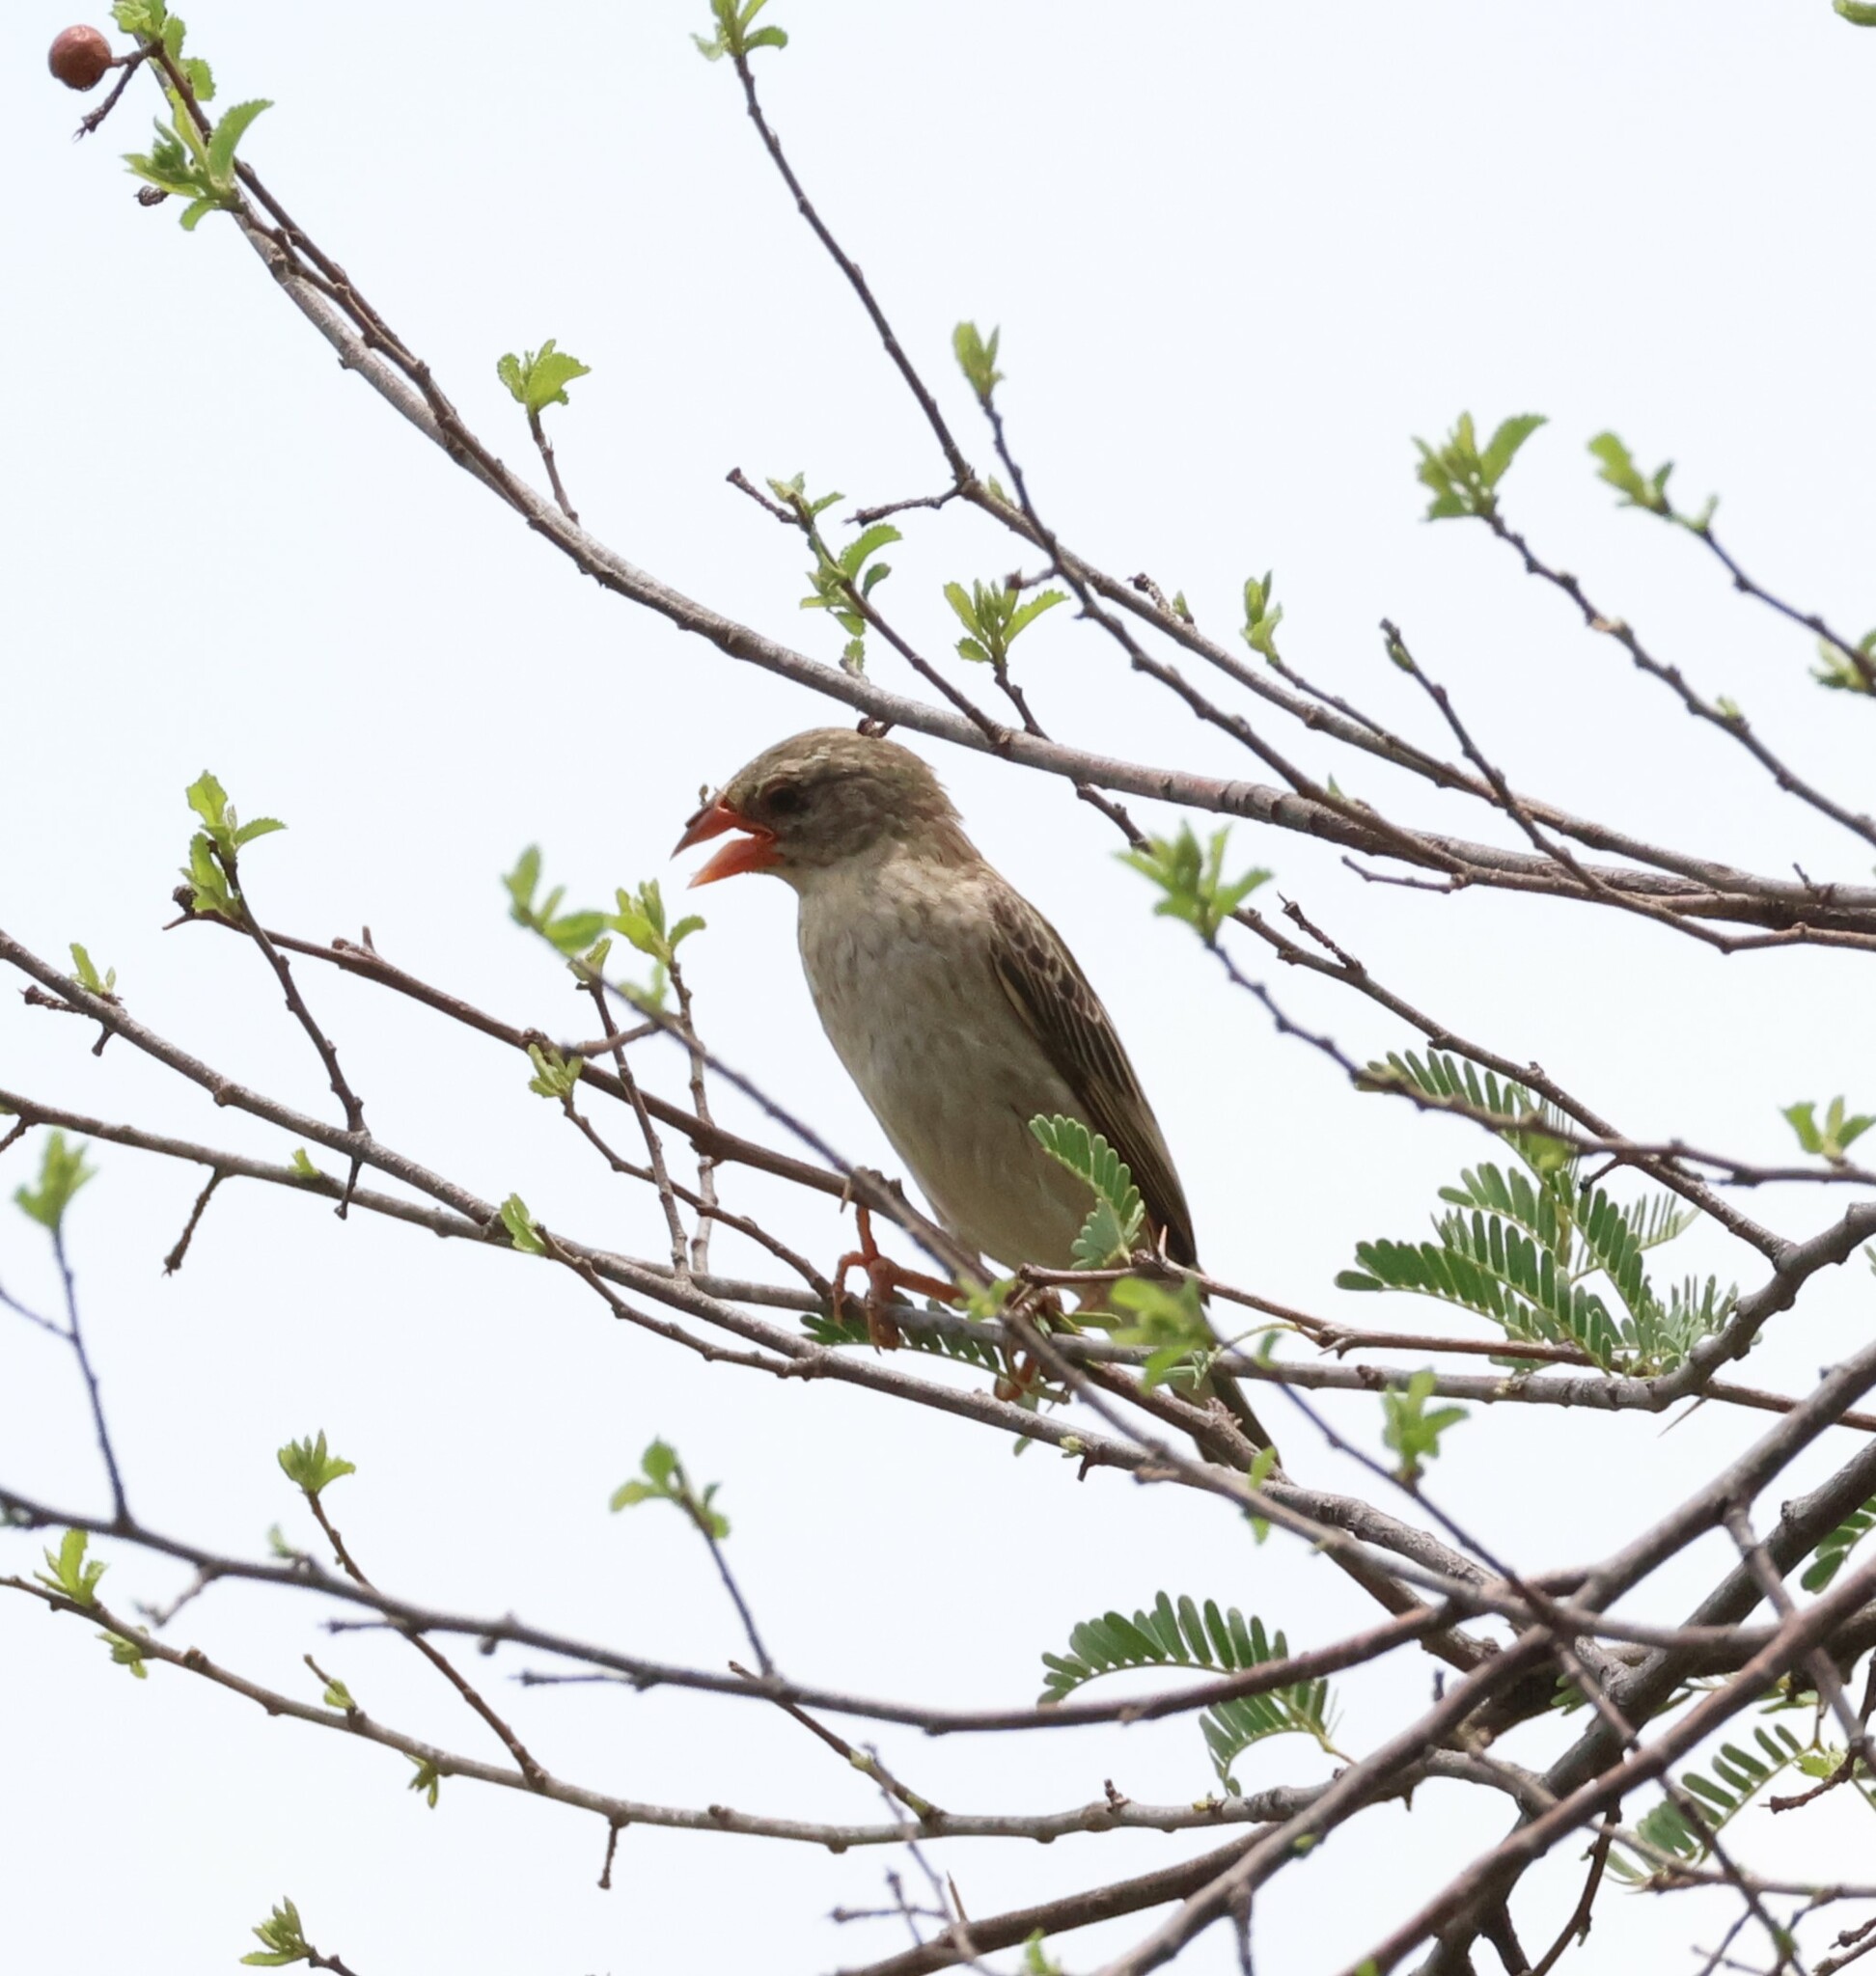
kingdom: Animalia
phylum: Chordata
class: Aves
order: Passeriformes
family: Ploceidae
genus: Quelea
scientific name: Quelea quelea
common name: Red-billed quelea
